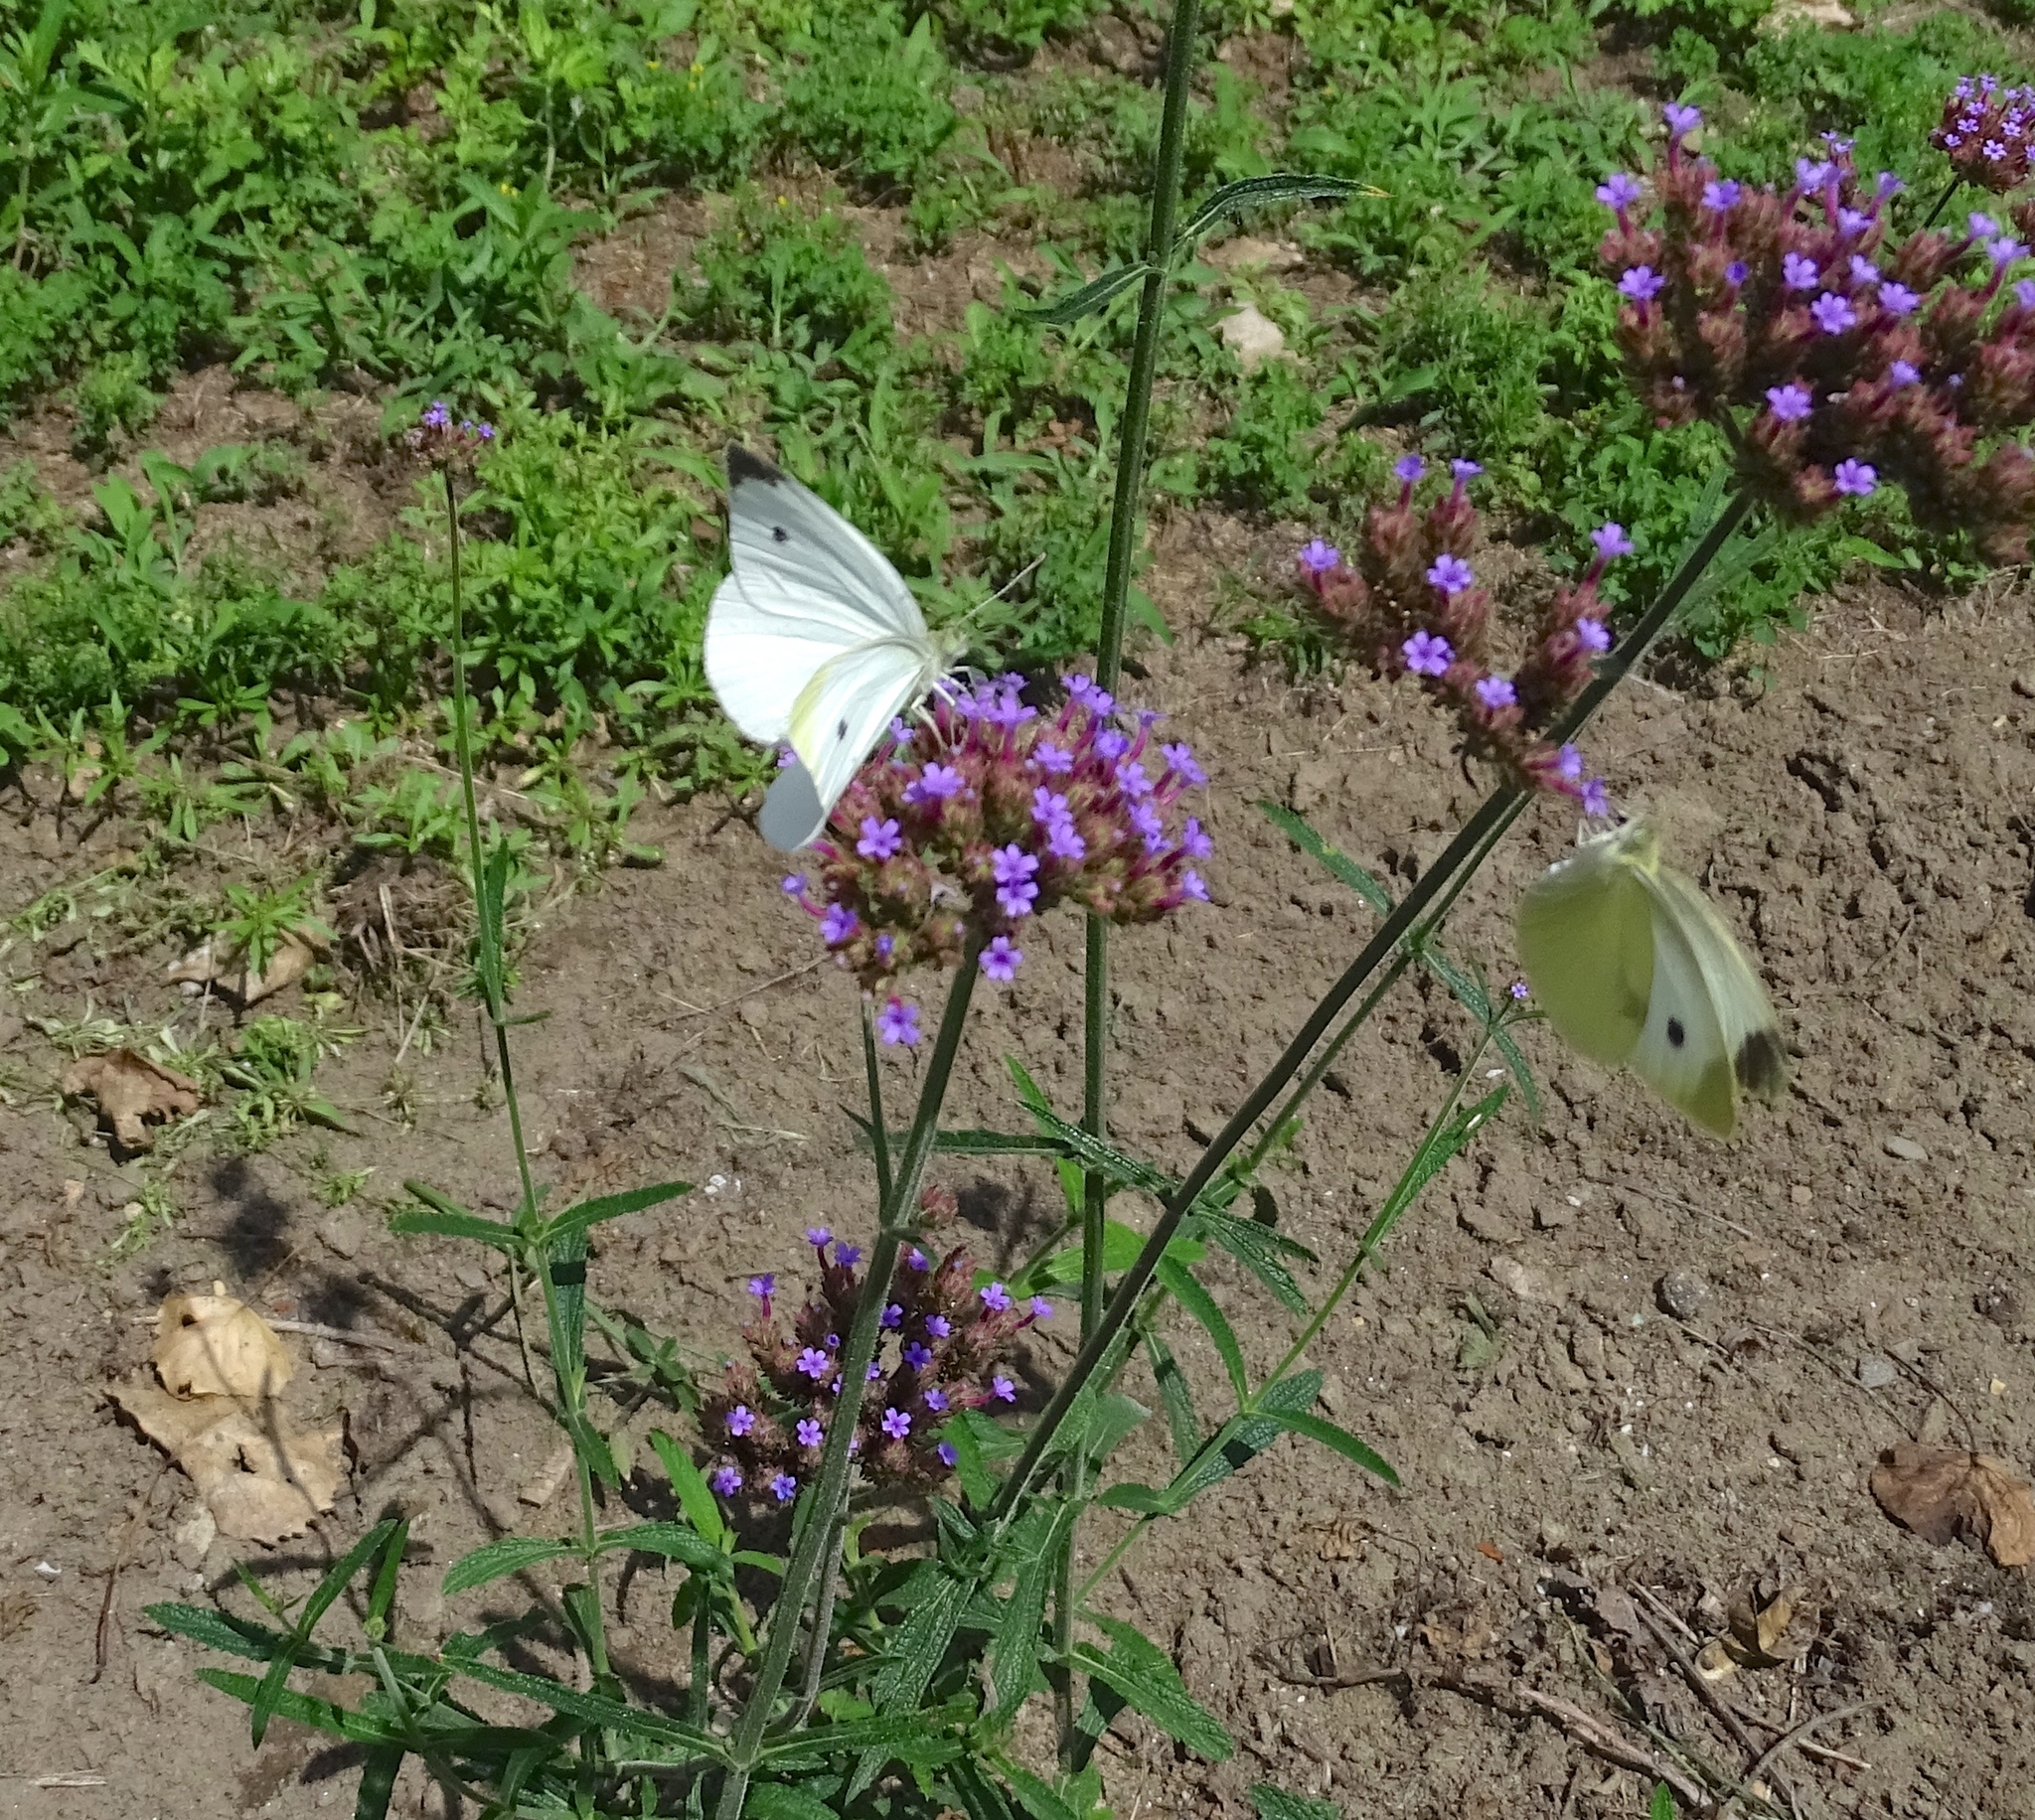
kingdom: Animalia
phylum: Arthropoda
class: Insecta
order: Lepidoptera
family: Pieridae
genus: Pieris
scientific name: Pieris rapae
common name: Small white
